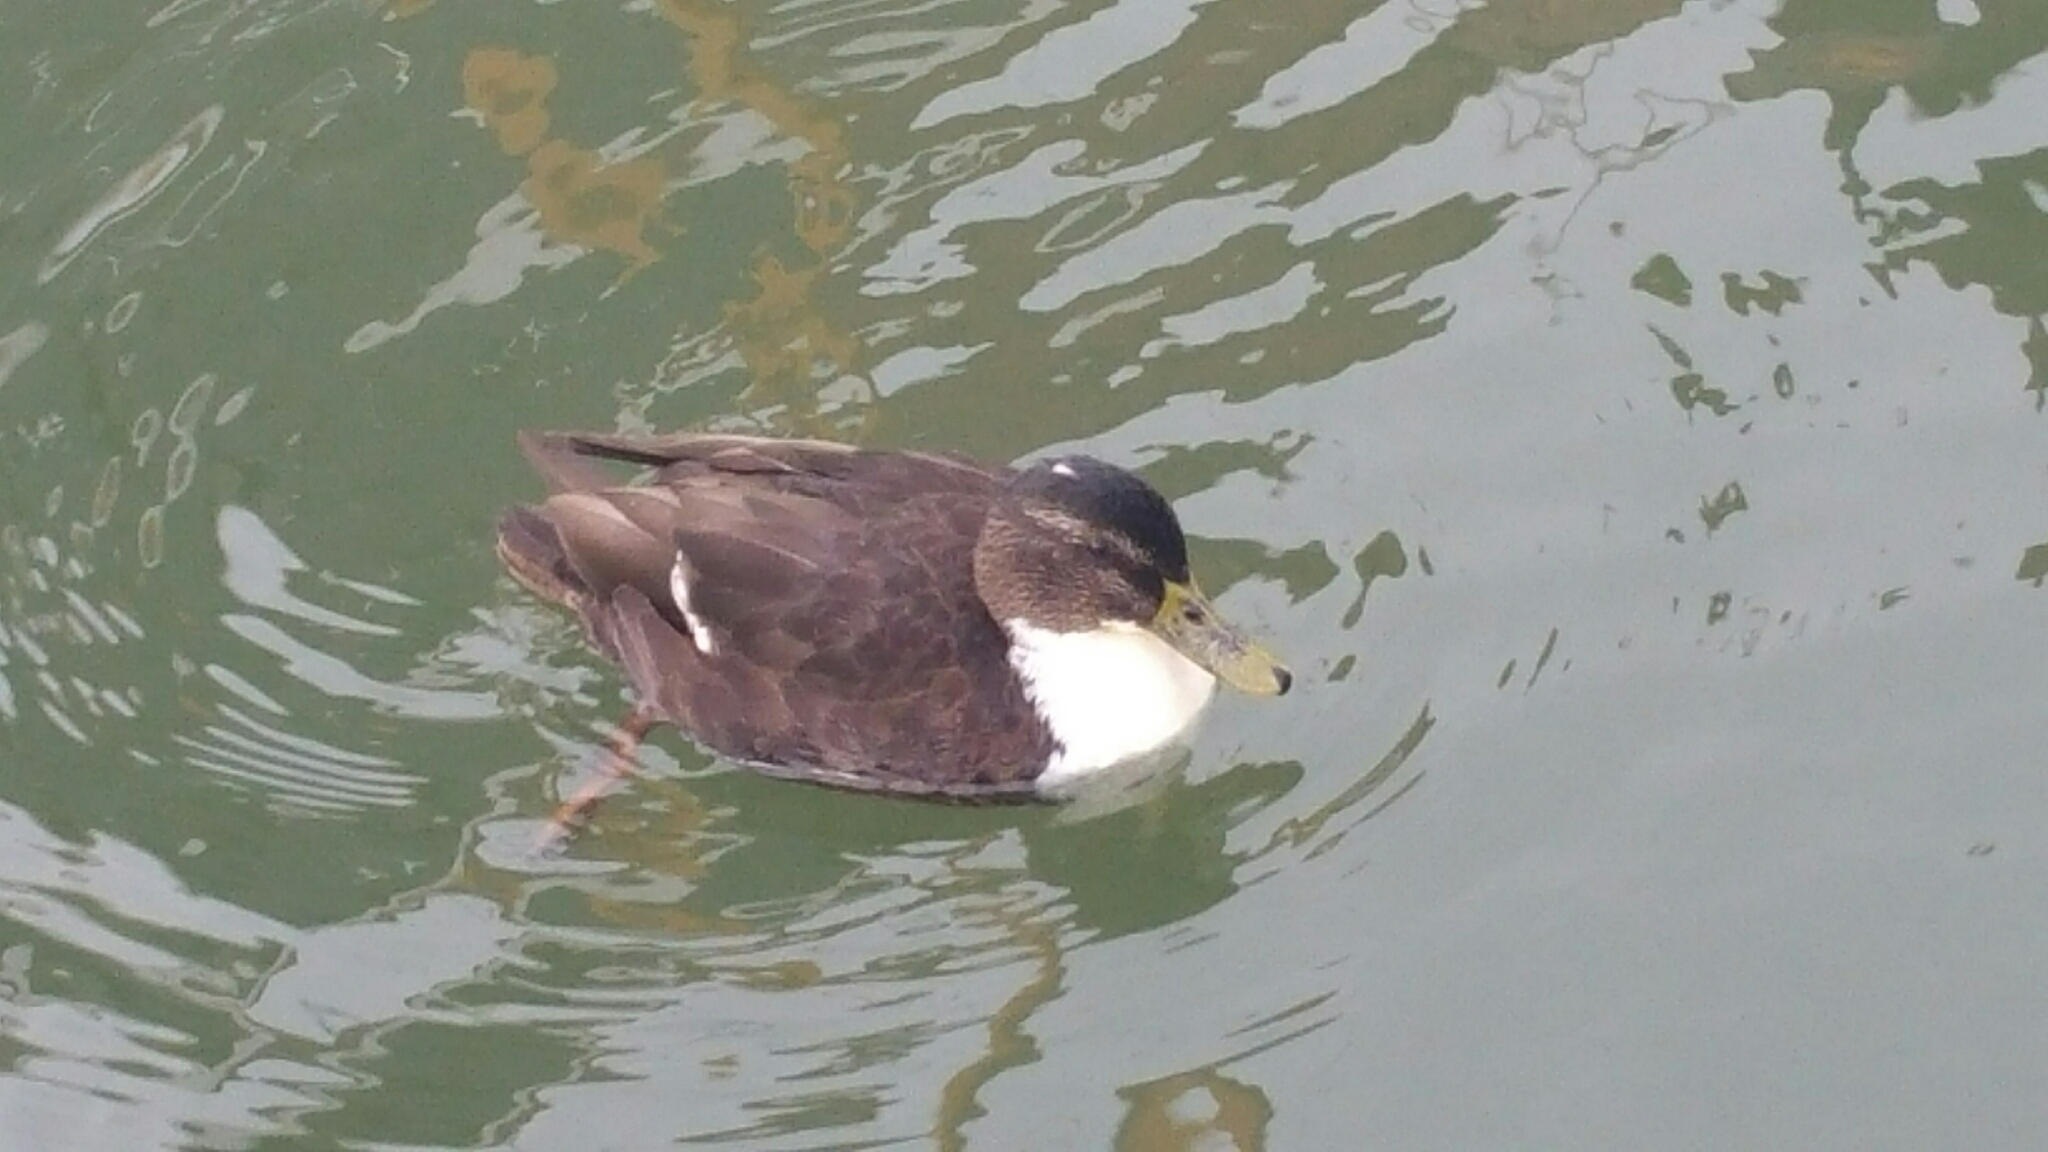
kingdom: Animalia
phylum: Chordata
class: Aves
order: Anseriformes
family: Anatidae
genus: Anas
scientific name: Anas platyrhynchos
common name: Mallard
